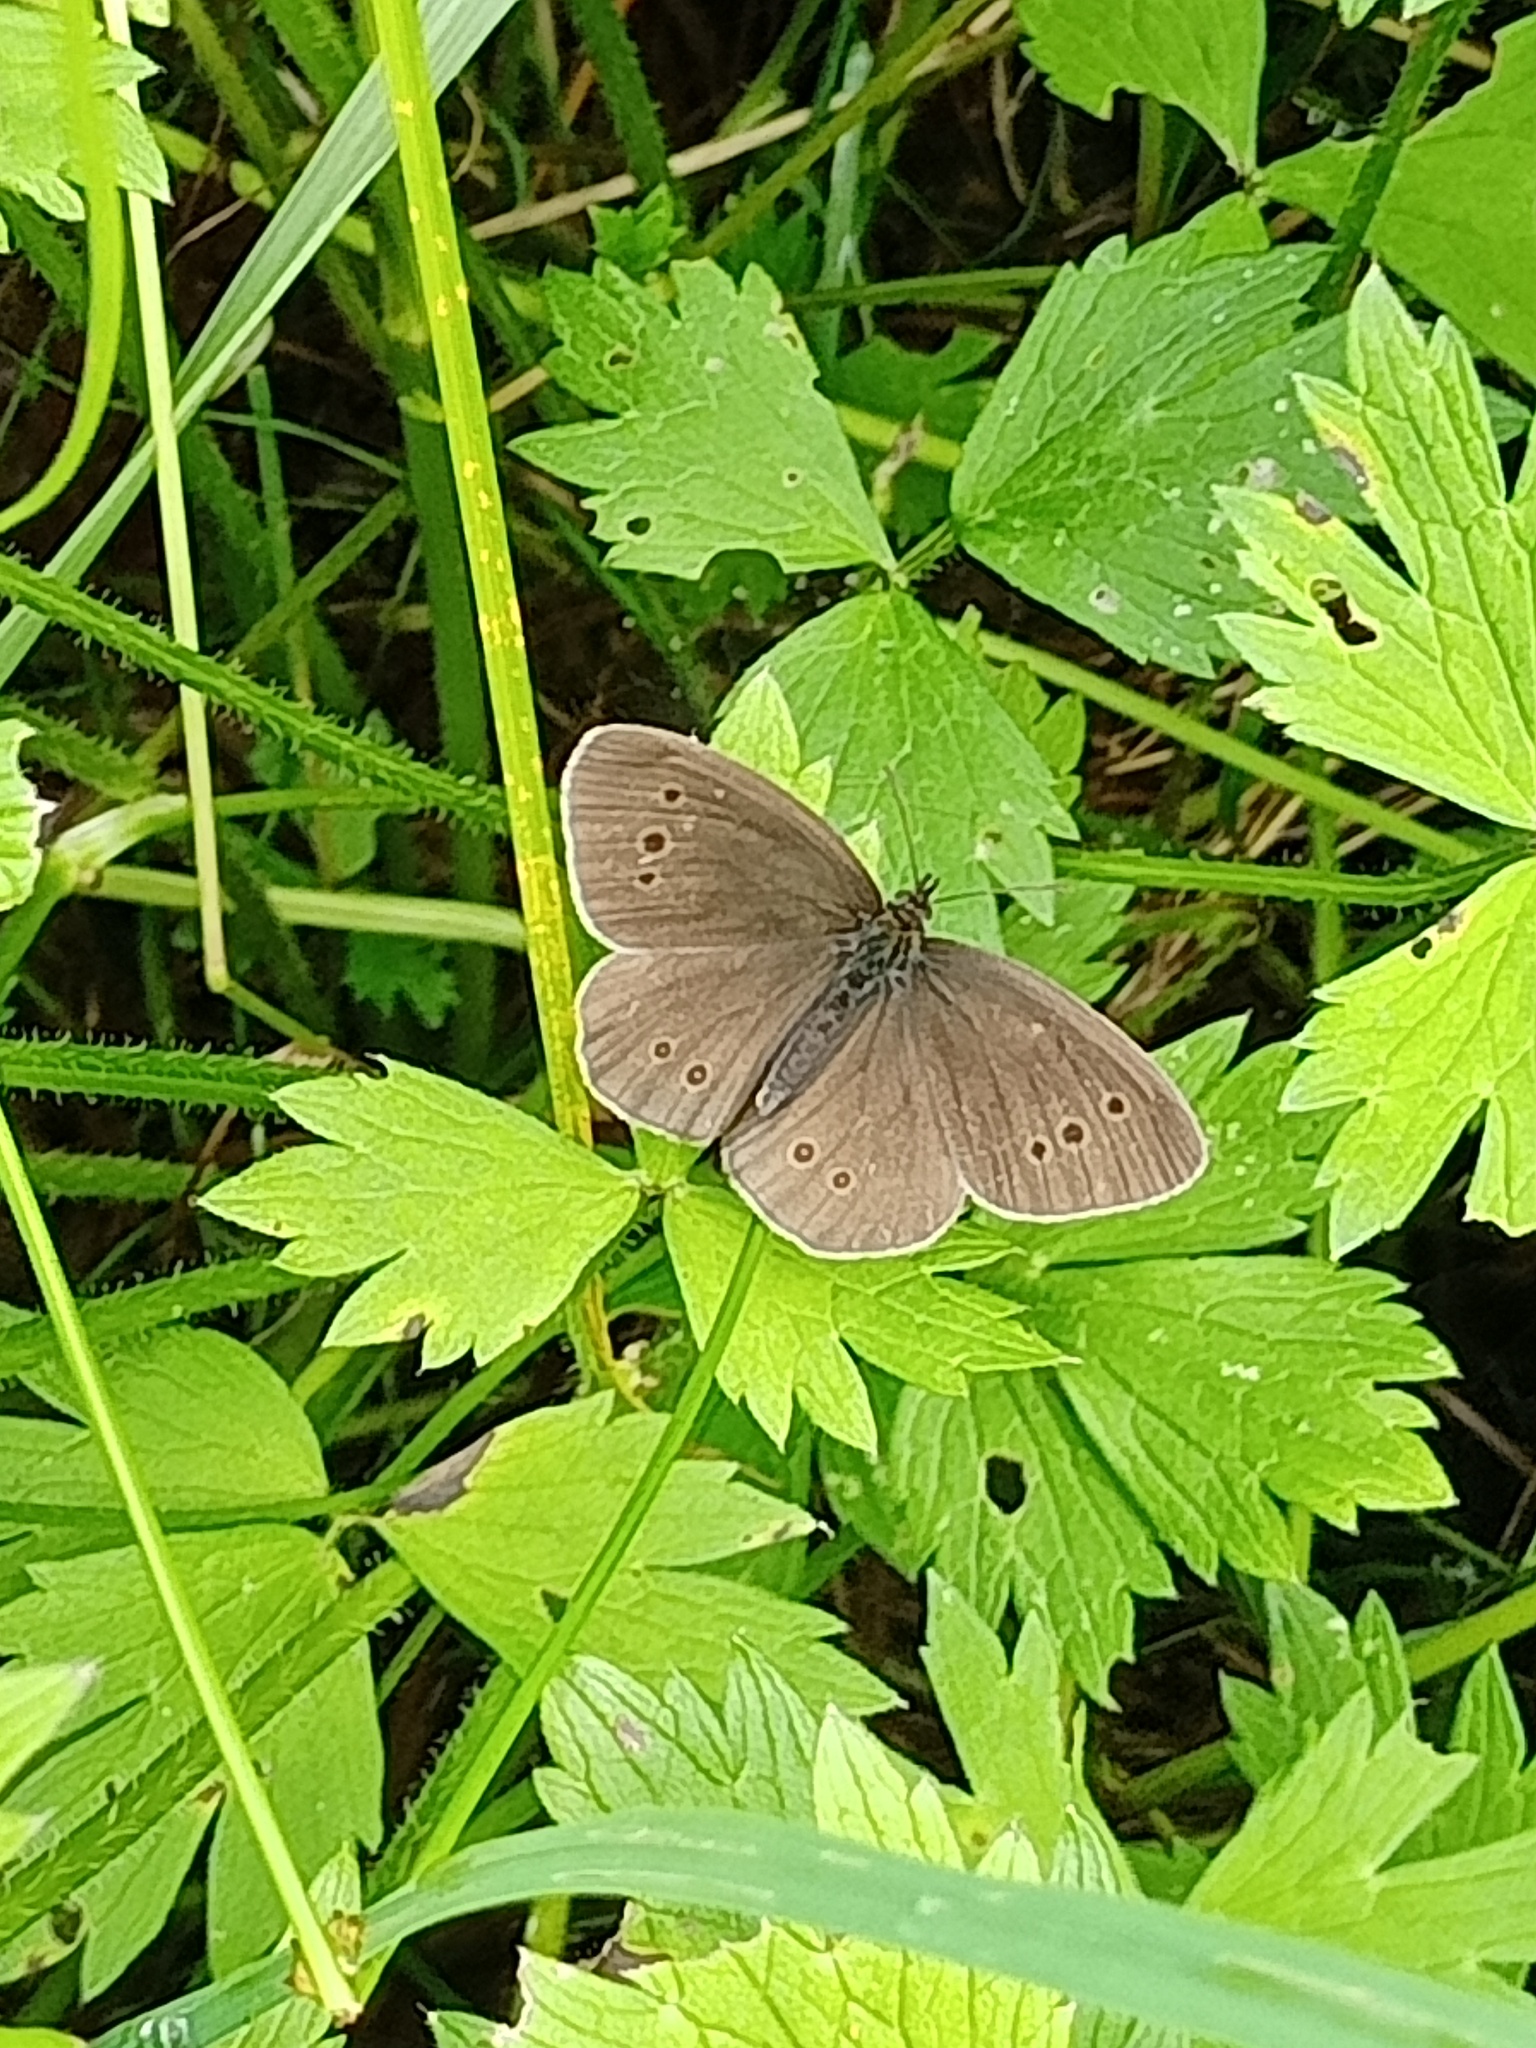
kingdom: Animalia
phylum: Arthropoda
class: Insecta
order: Lepidoptera
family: Nymphalidae
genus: Aphantopus
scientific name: Aphantopus hyperantus
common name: Ringlet
